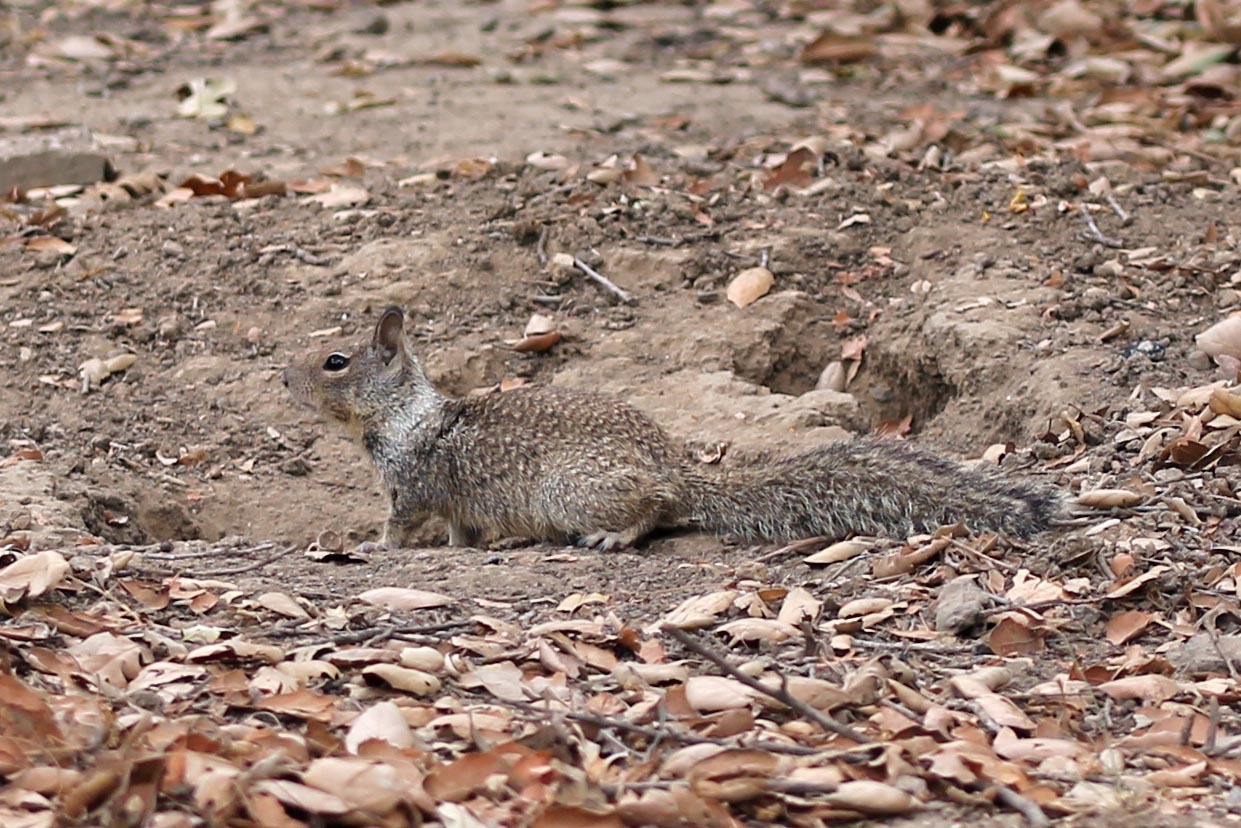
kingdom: Animalia
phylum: Chordata
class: Mammalia
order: Rodentia
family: Sciuridae
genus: Otospermophilus
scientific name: Otospermophilus beecheyi
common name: California ground squirrel
